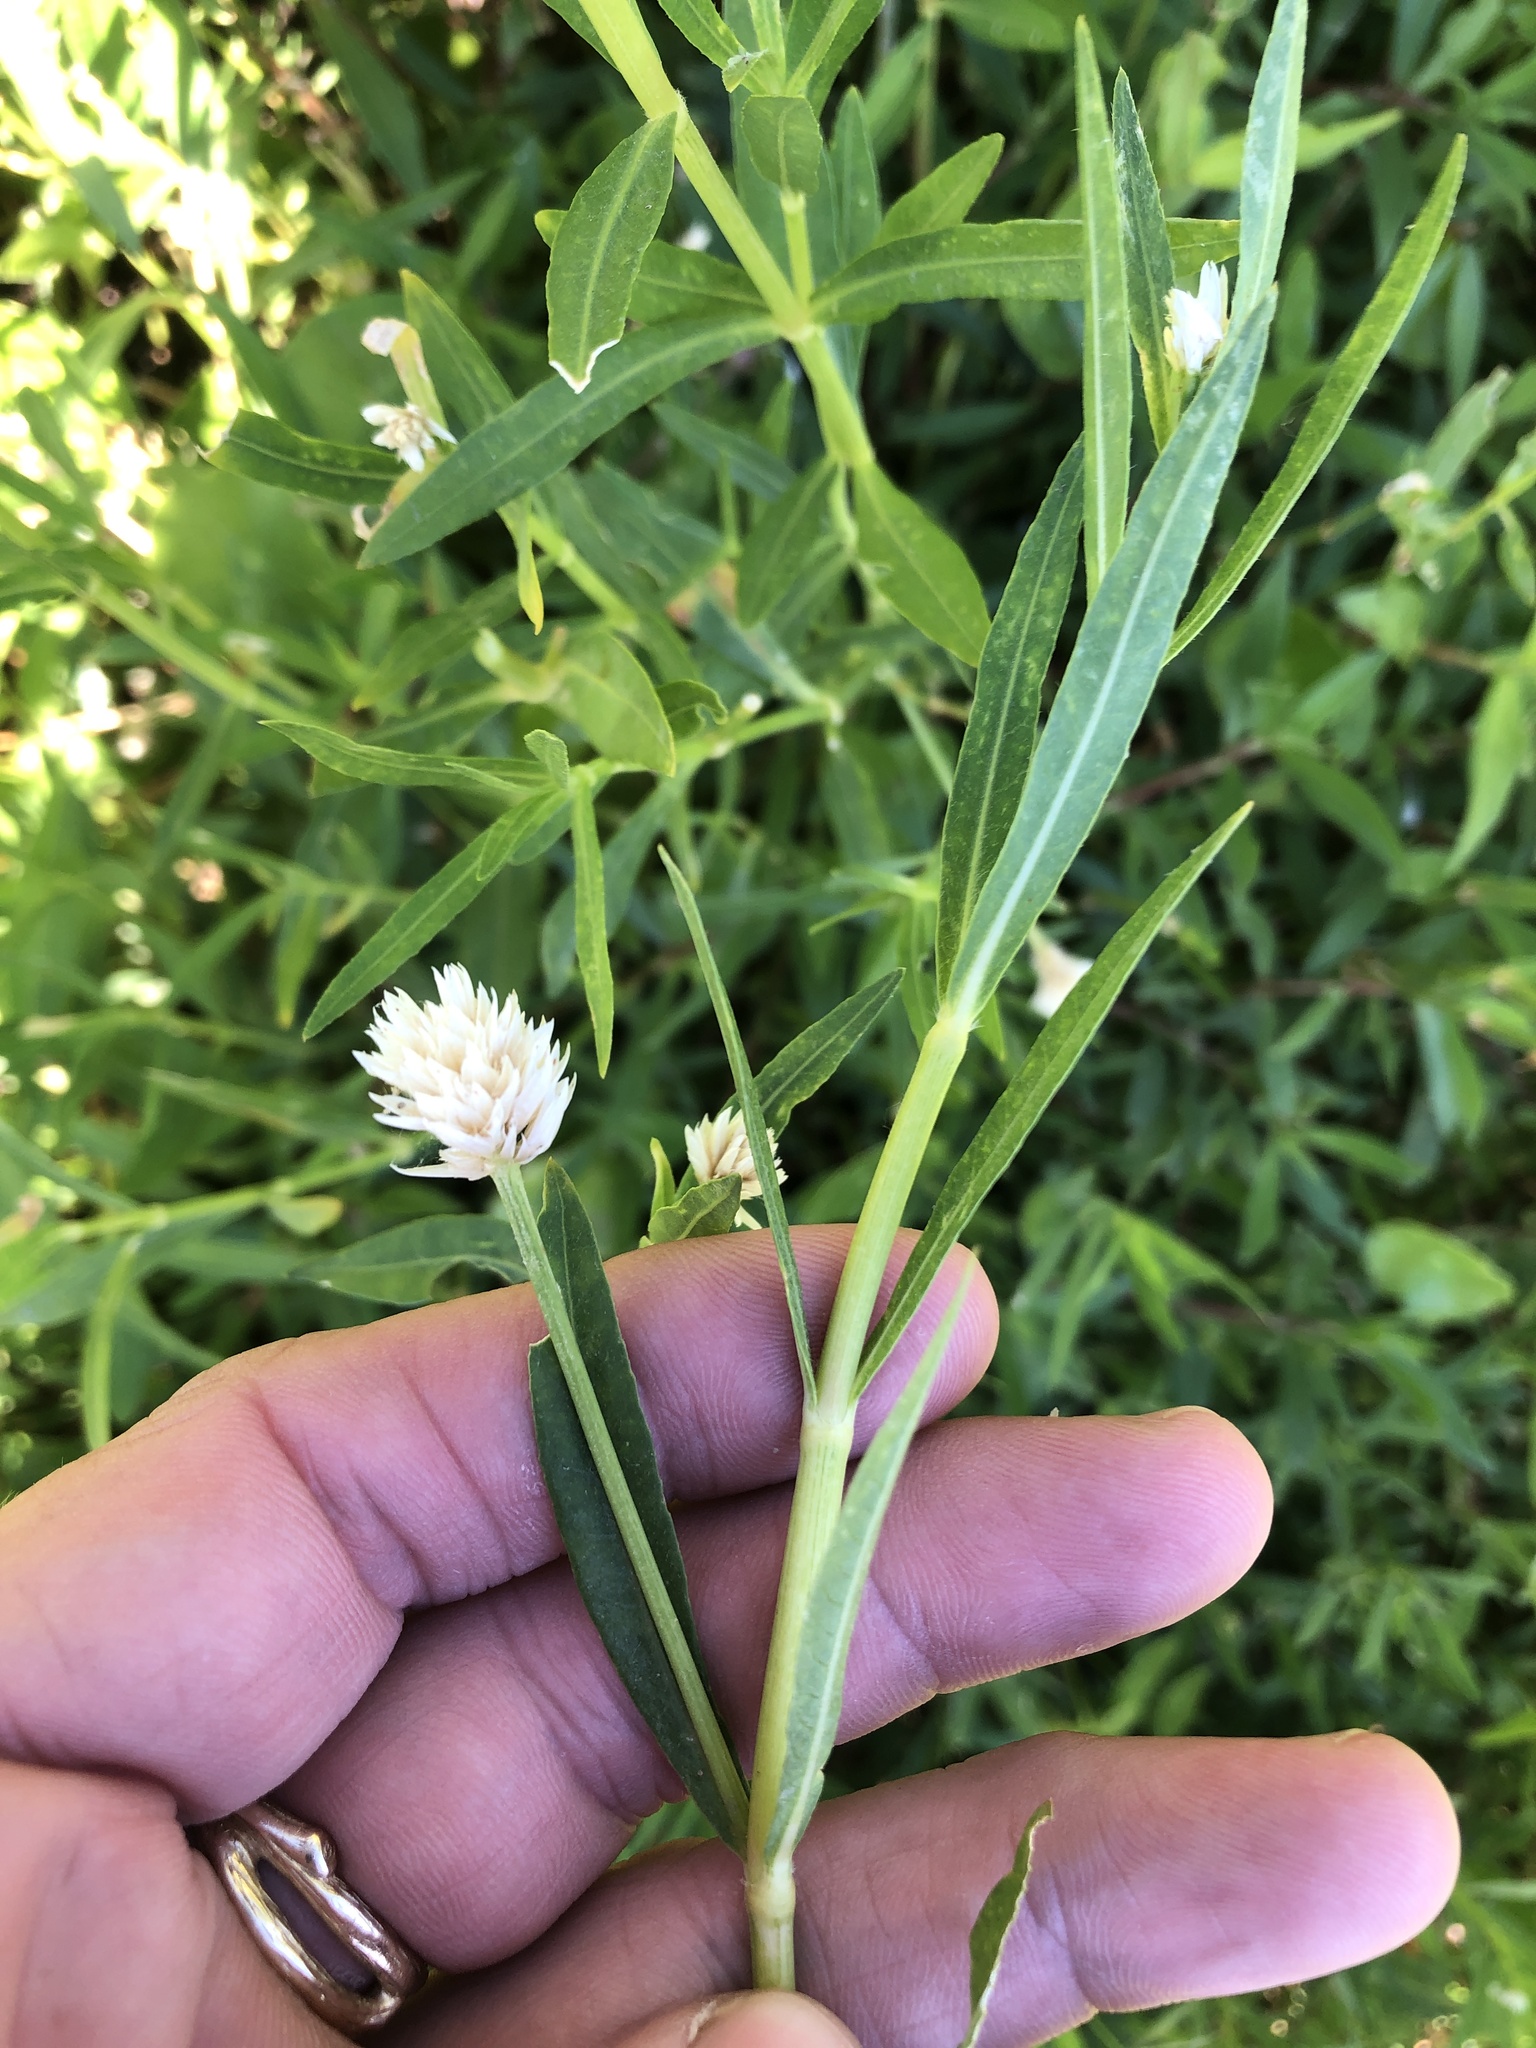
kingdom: Plantae
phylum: Tracheophyta
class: Magnoliopsida
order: Caryophyllales
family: Amaranthaceae
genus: Alternanthera
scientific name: Alternanthera philoxeroides
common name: Alligatorweed
